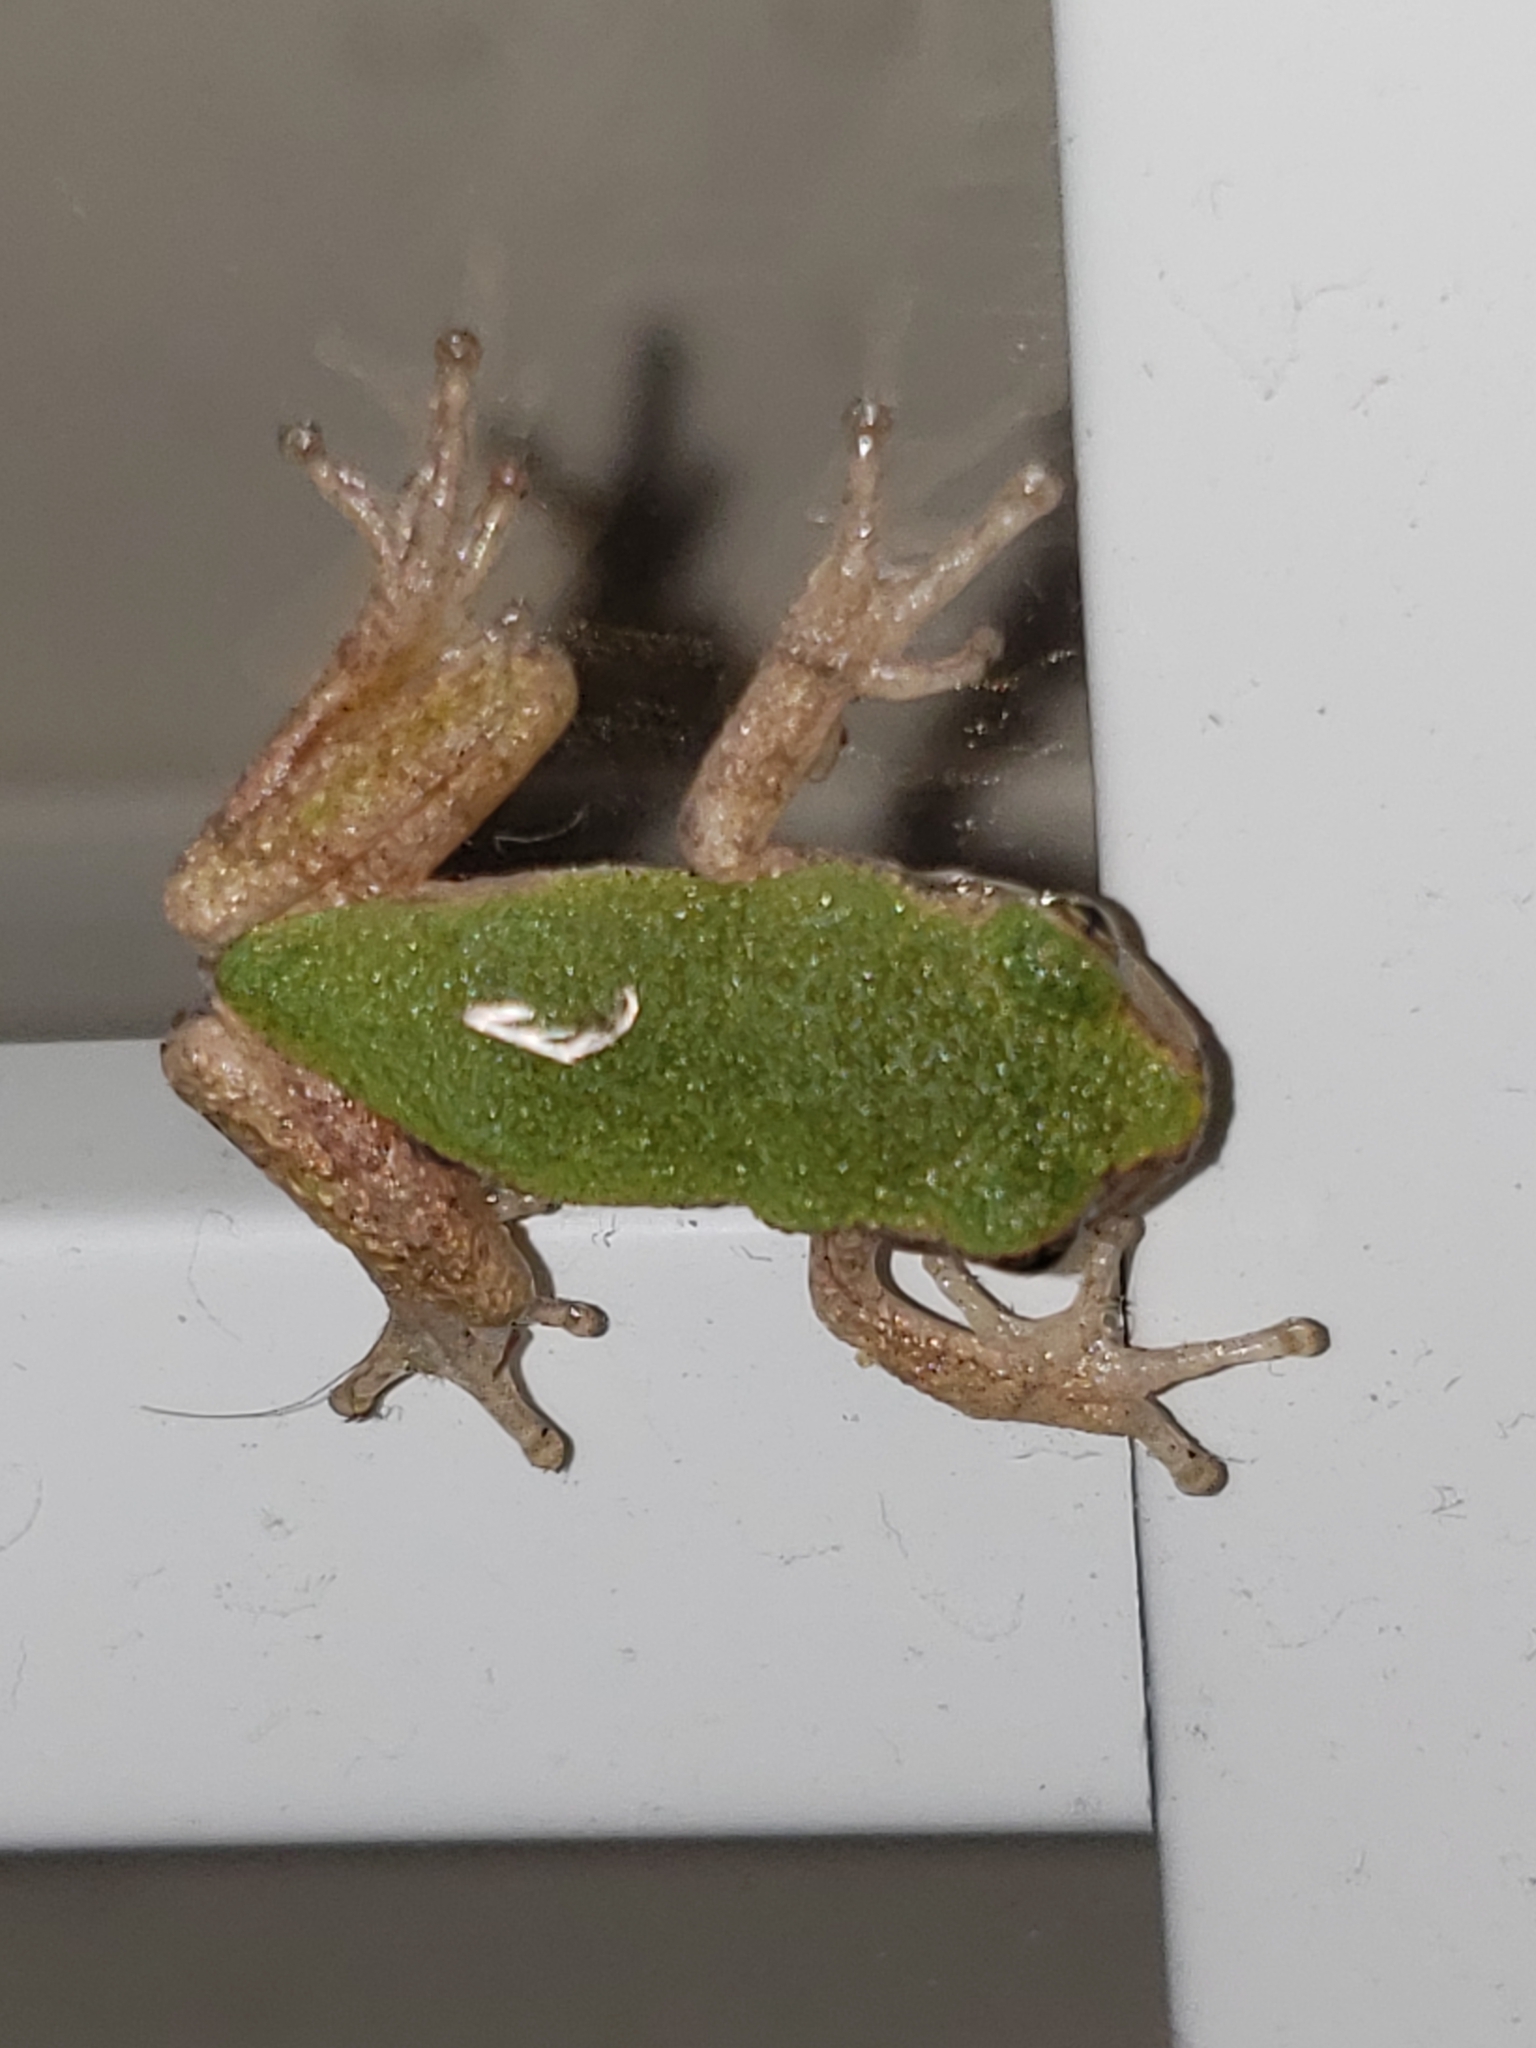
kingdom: Animalia
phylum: Chordata
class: Amphibia
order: Anura
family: Hylidae
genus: Hyla
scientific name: Hyla
